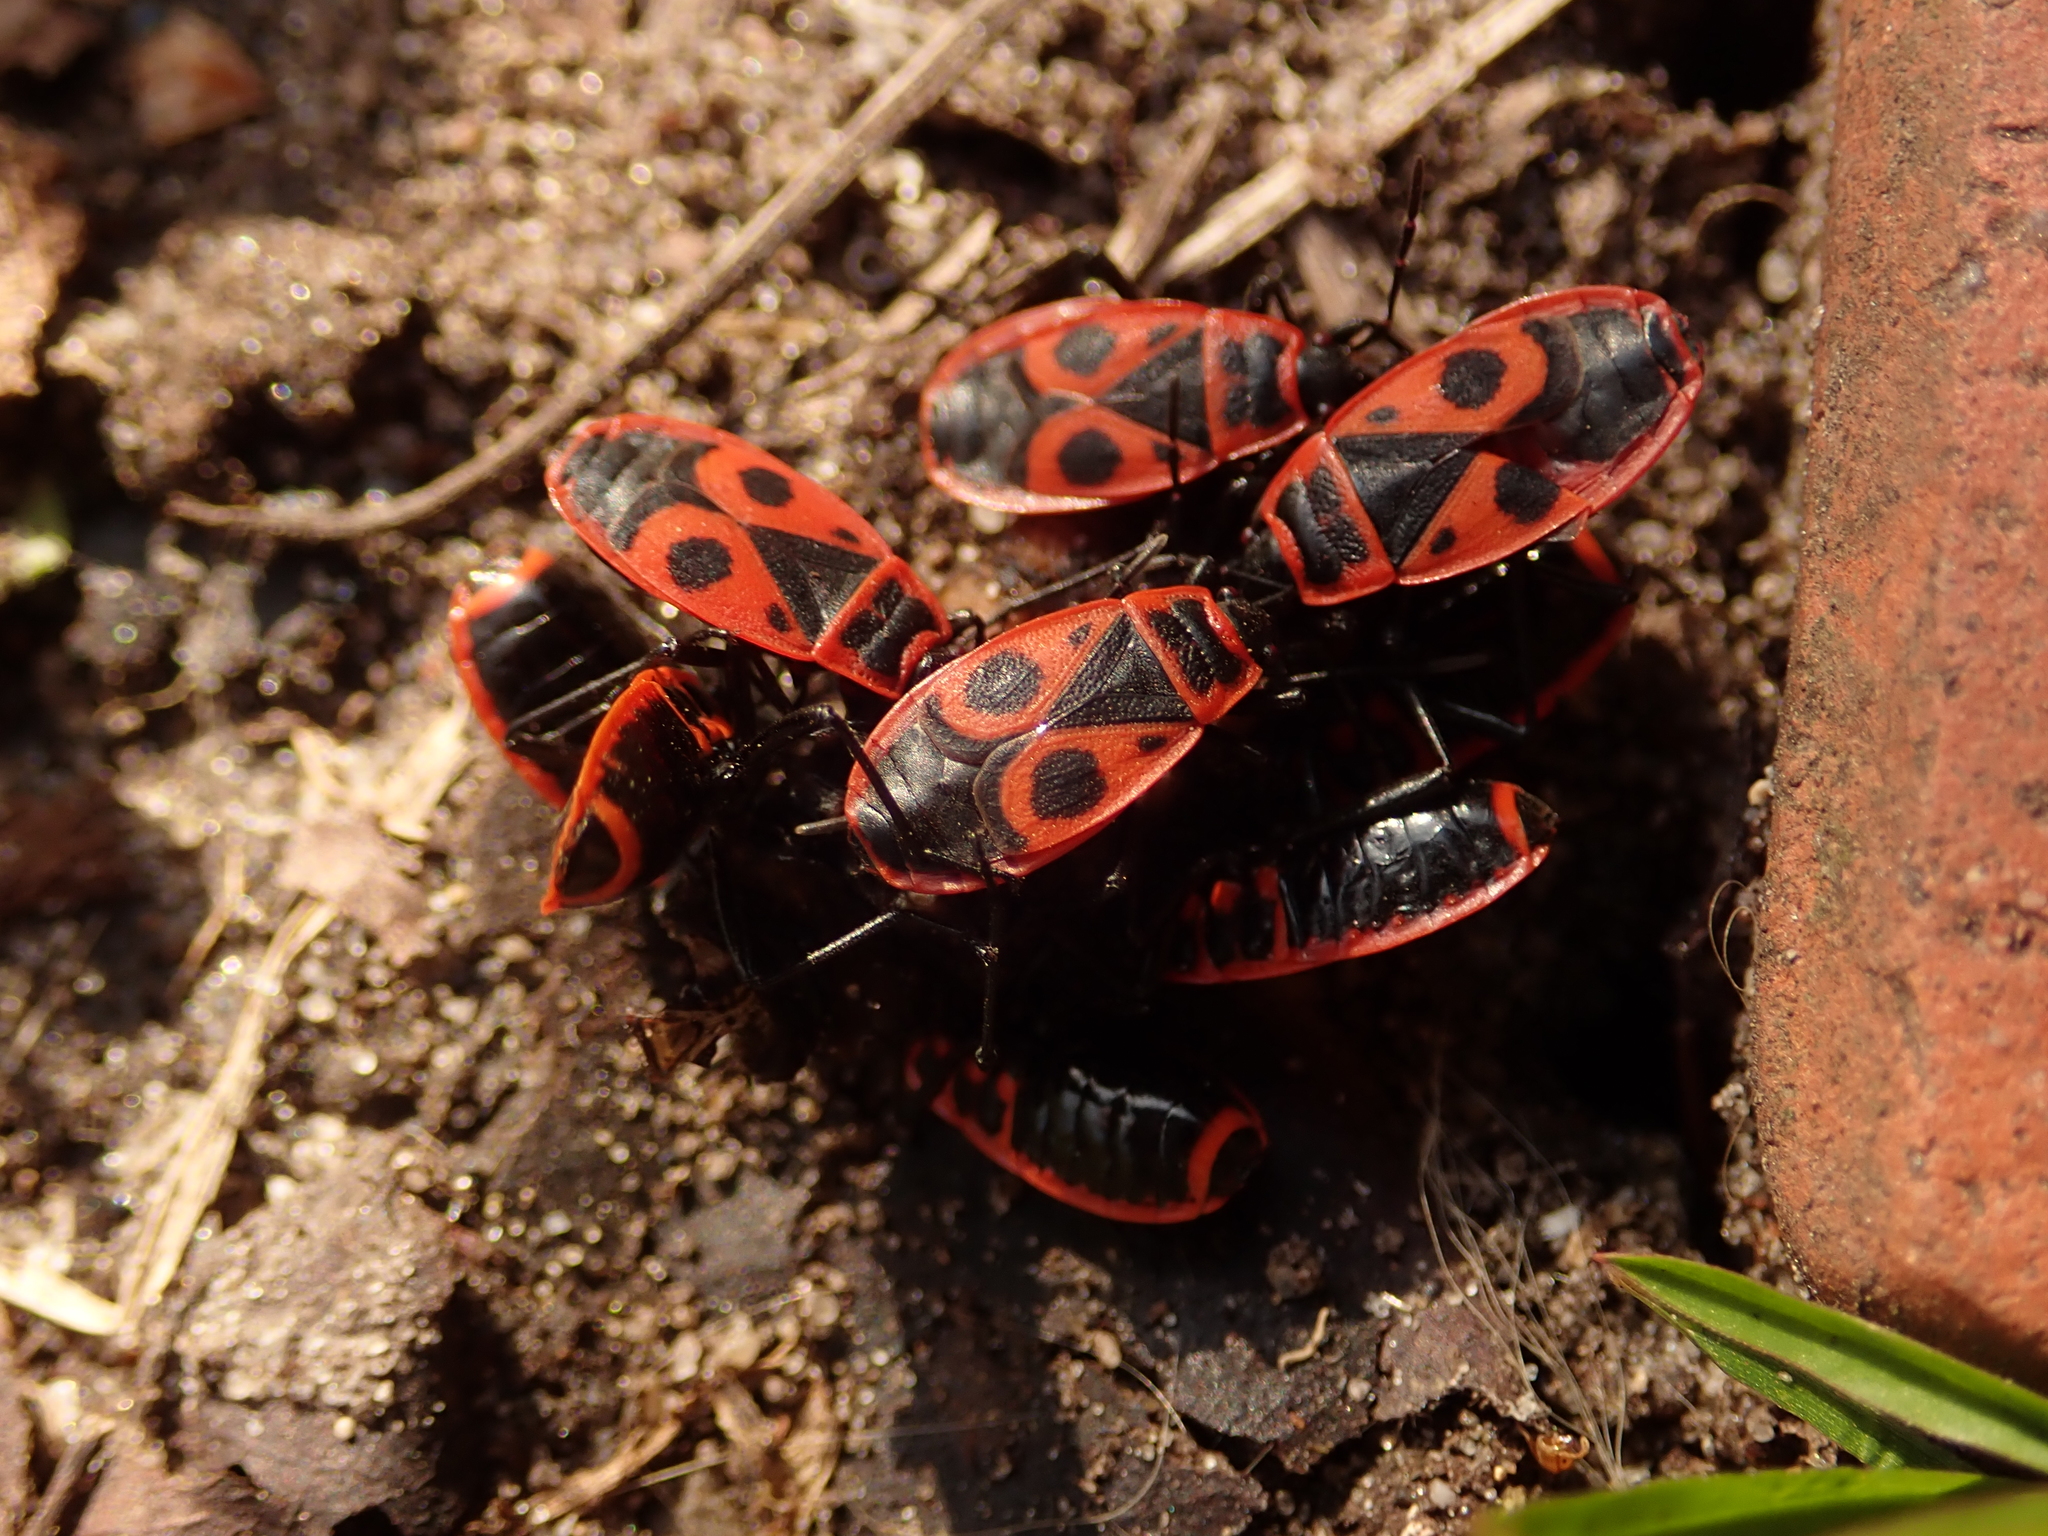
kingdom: Animalia
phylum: Arthropoda
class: Insecta
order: Hemiptera
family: Pyrrhocoridae
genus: Pyrrhocoris
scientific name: Pyrrhocoris apterus
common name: Firebug
